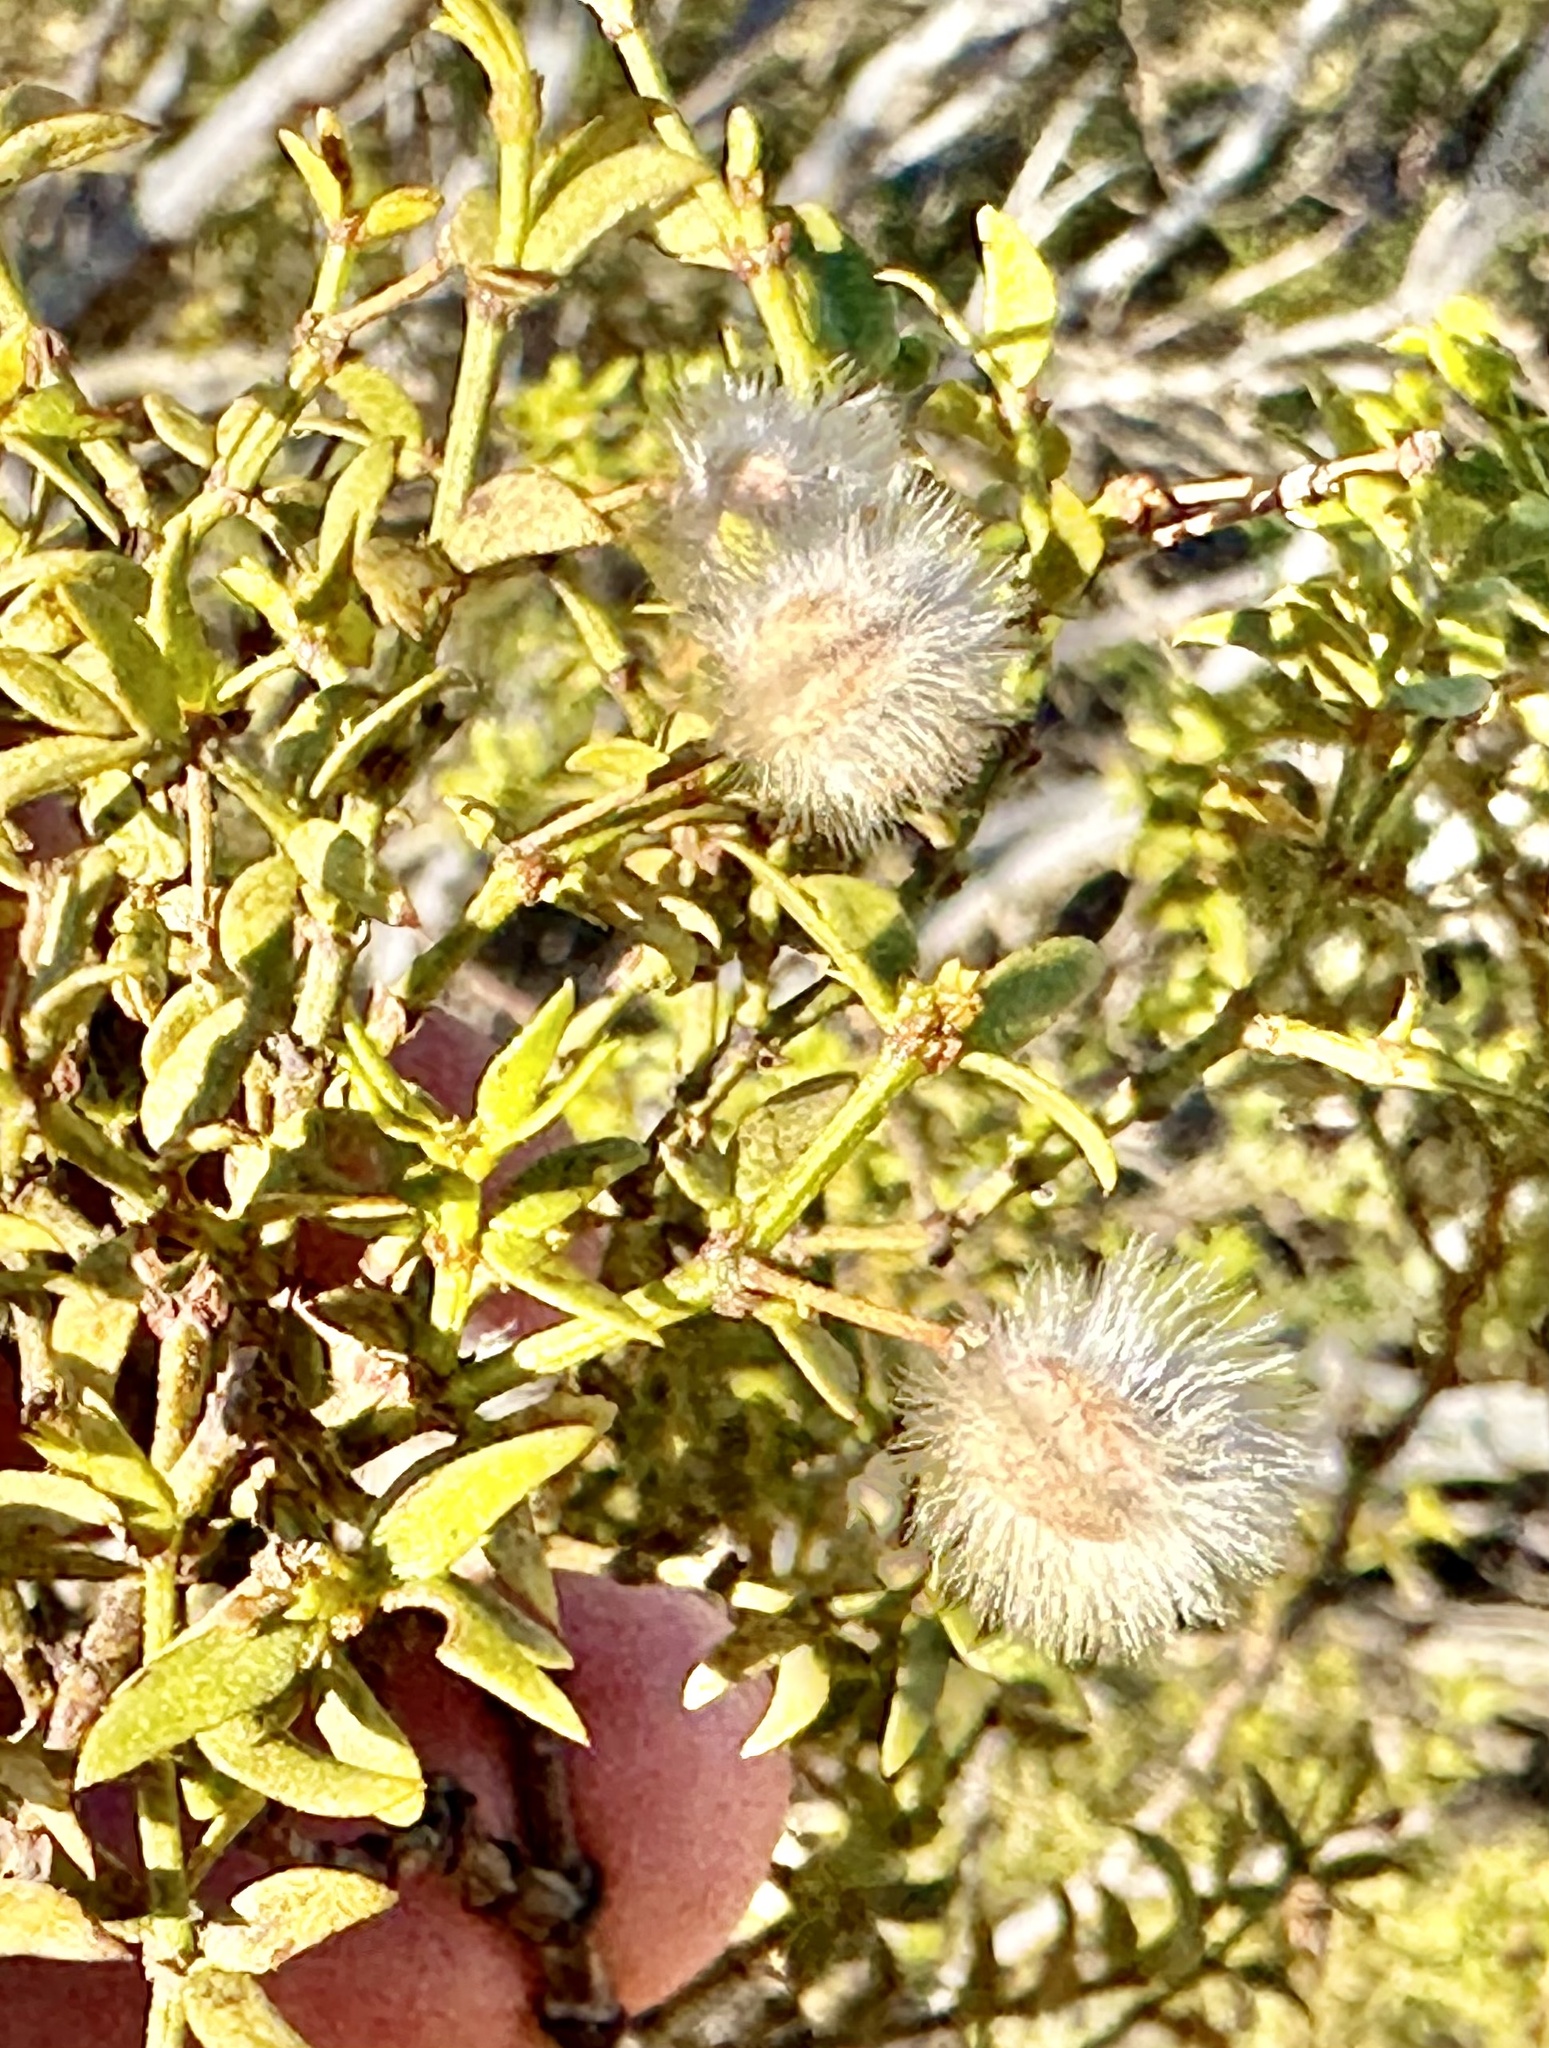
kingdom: Plantae
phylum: Tracheophyta
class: Magnoliopsida
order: Zygophyllales
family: Zygophyllaceae
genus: Larrea
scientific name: Larrea tridentata
